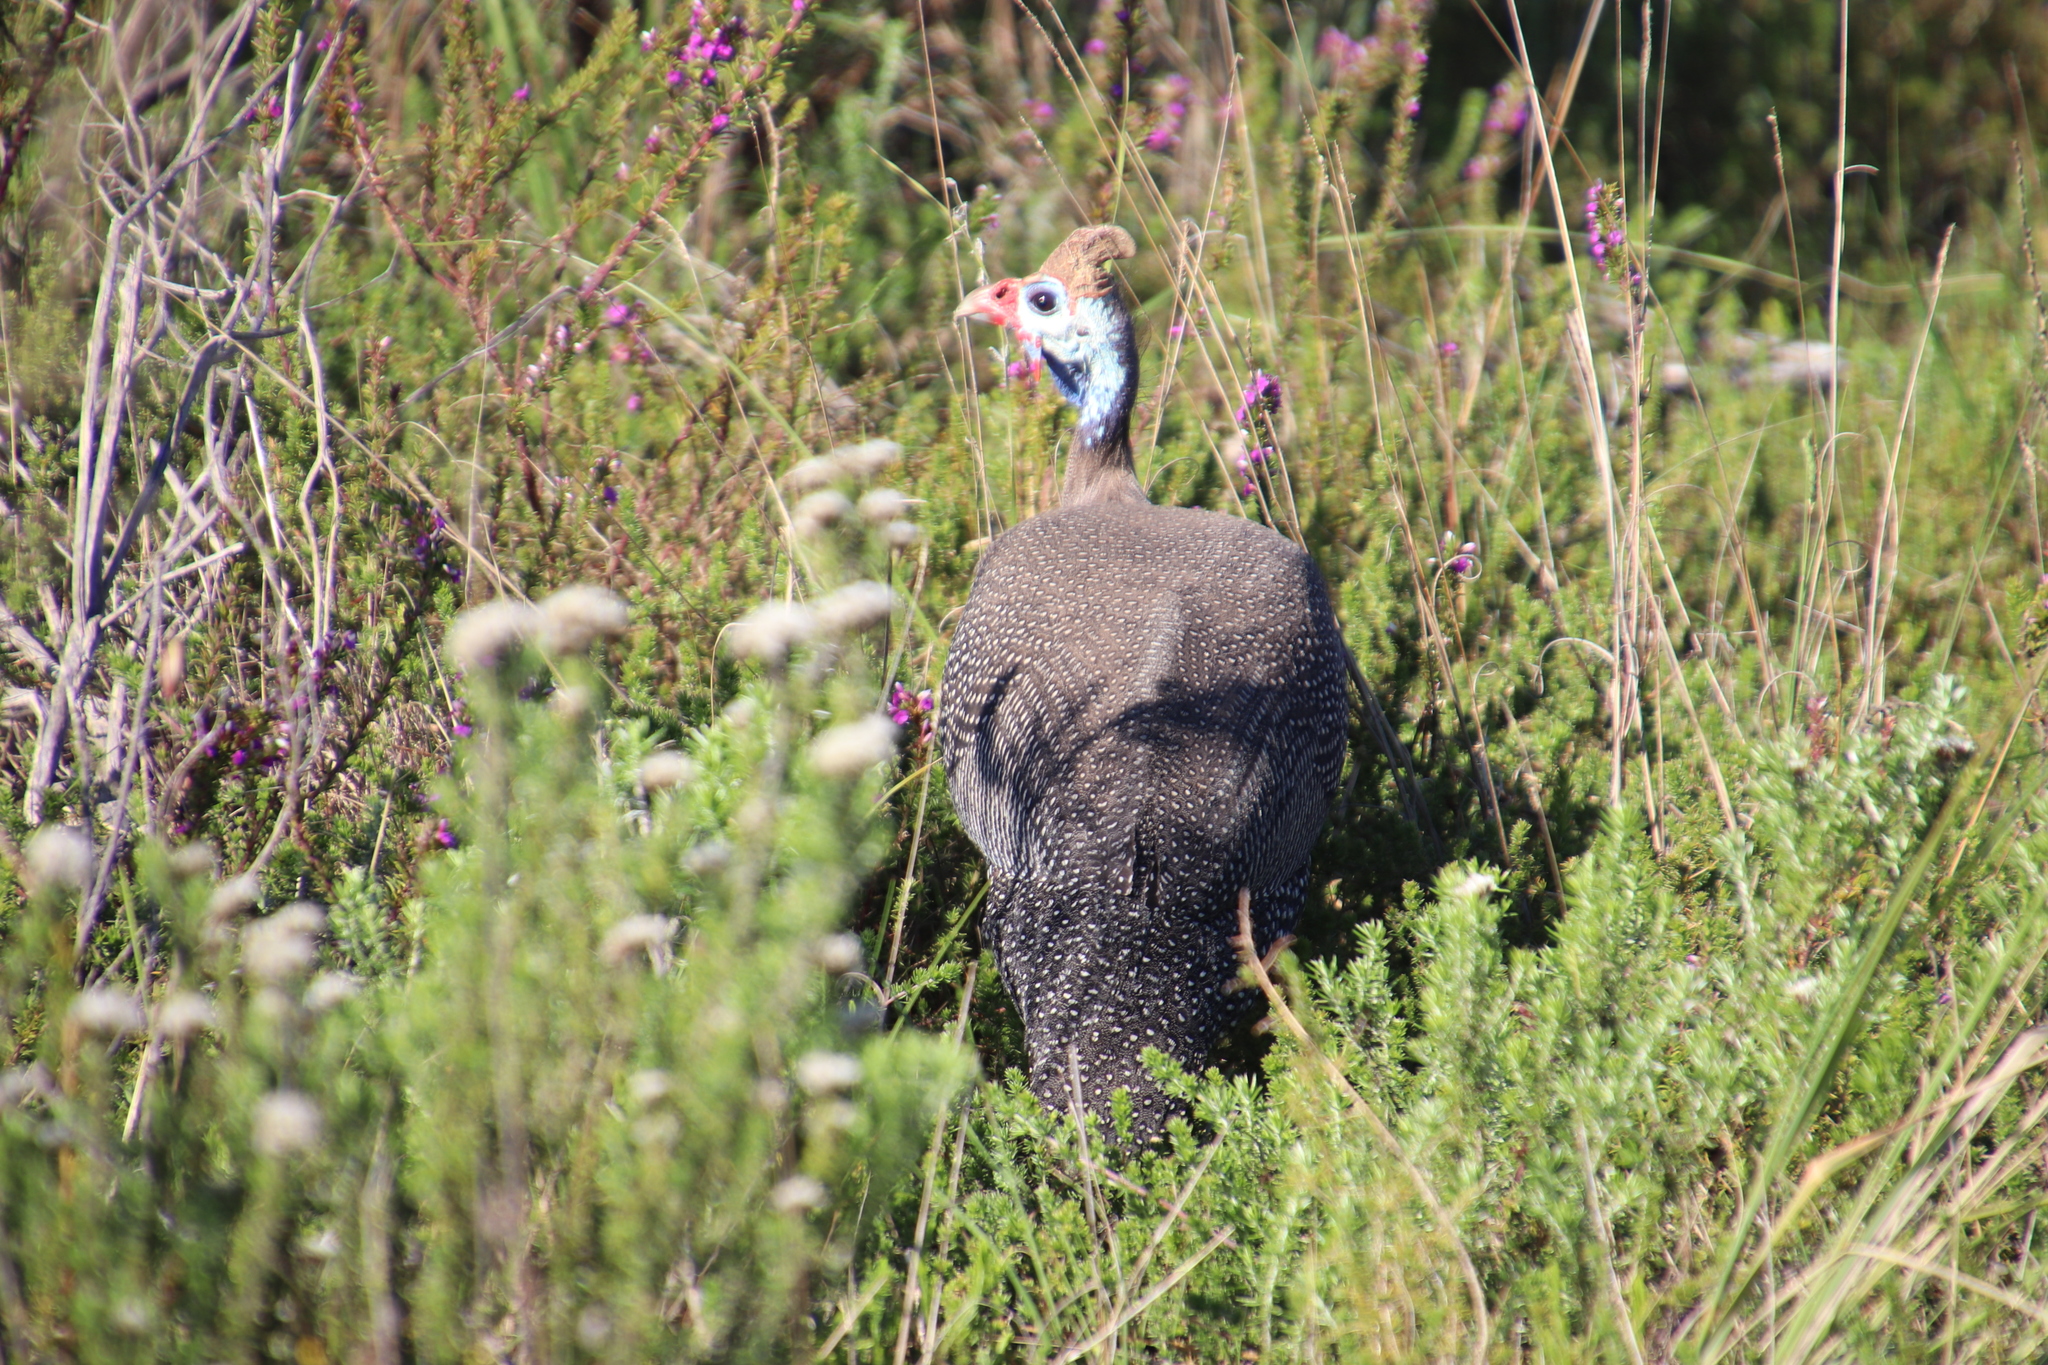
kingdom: Animalia
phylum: Chordata
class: Aves
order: Galliformes
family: Numididae
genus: Numida
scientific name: Numida meleagris
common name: Helmeted guineafowl
